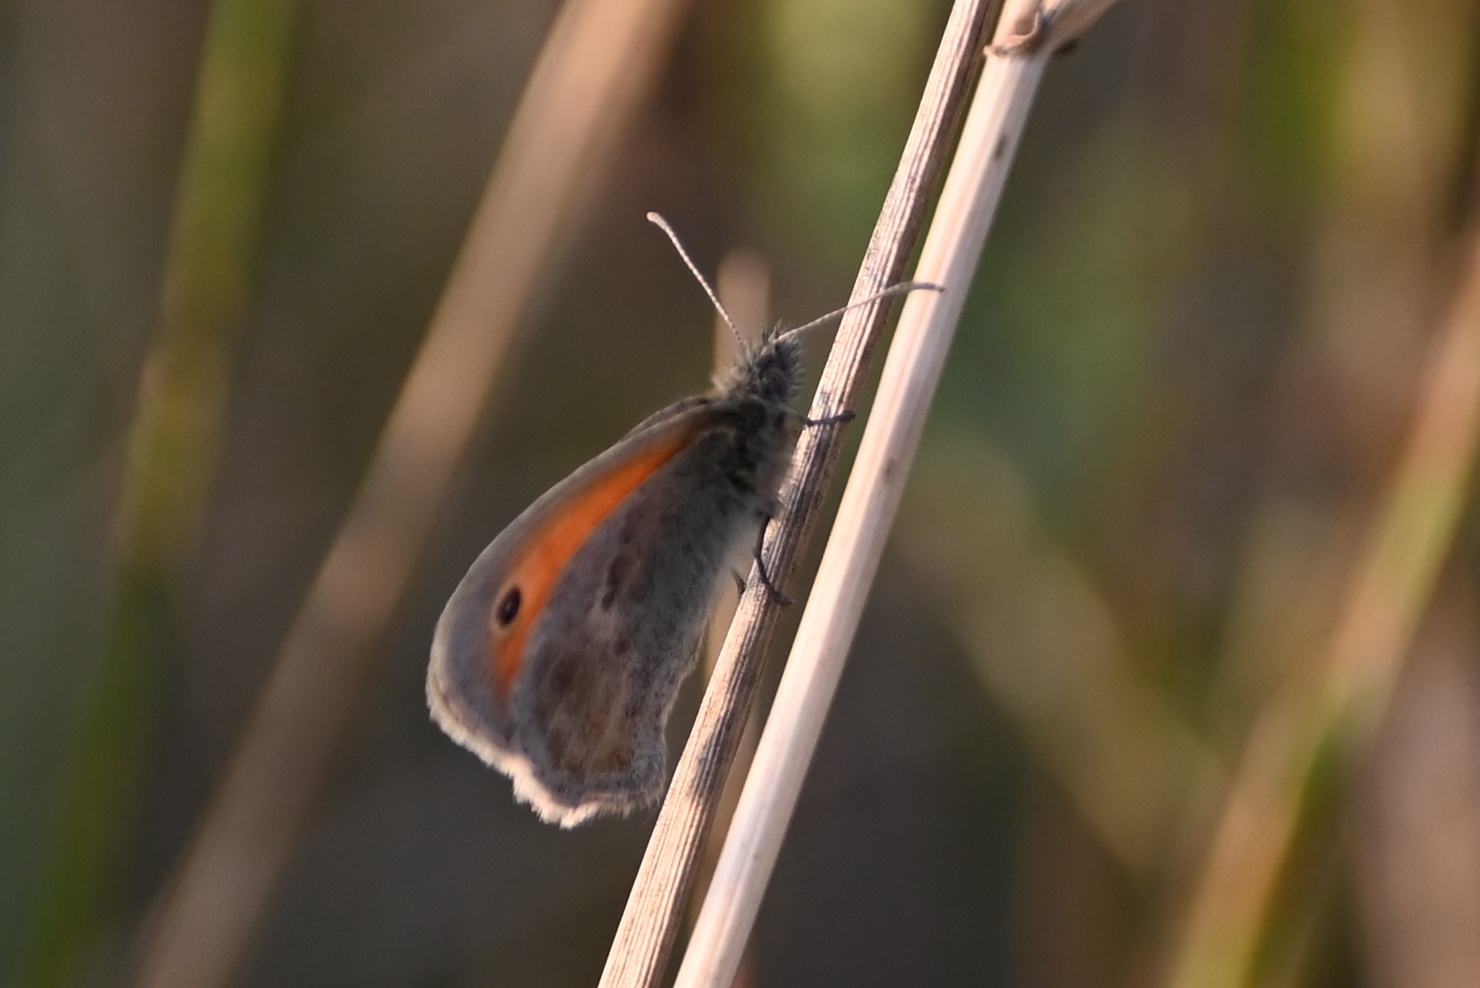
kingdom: Animalia
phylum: Arthropoda
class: Insecta
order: Lepidoptera
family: Nymphalidae
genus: Coenonympha
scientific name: Coenonympha pamphilus
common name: Small heath
